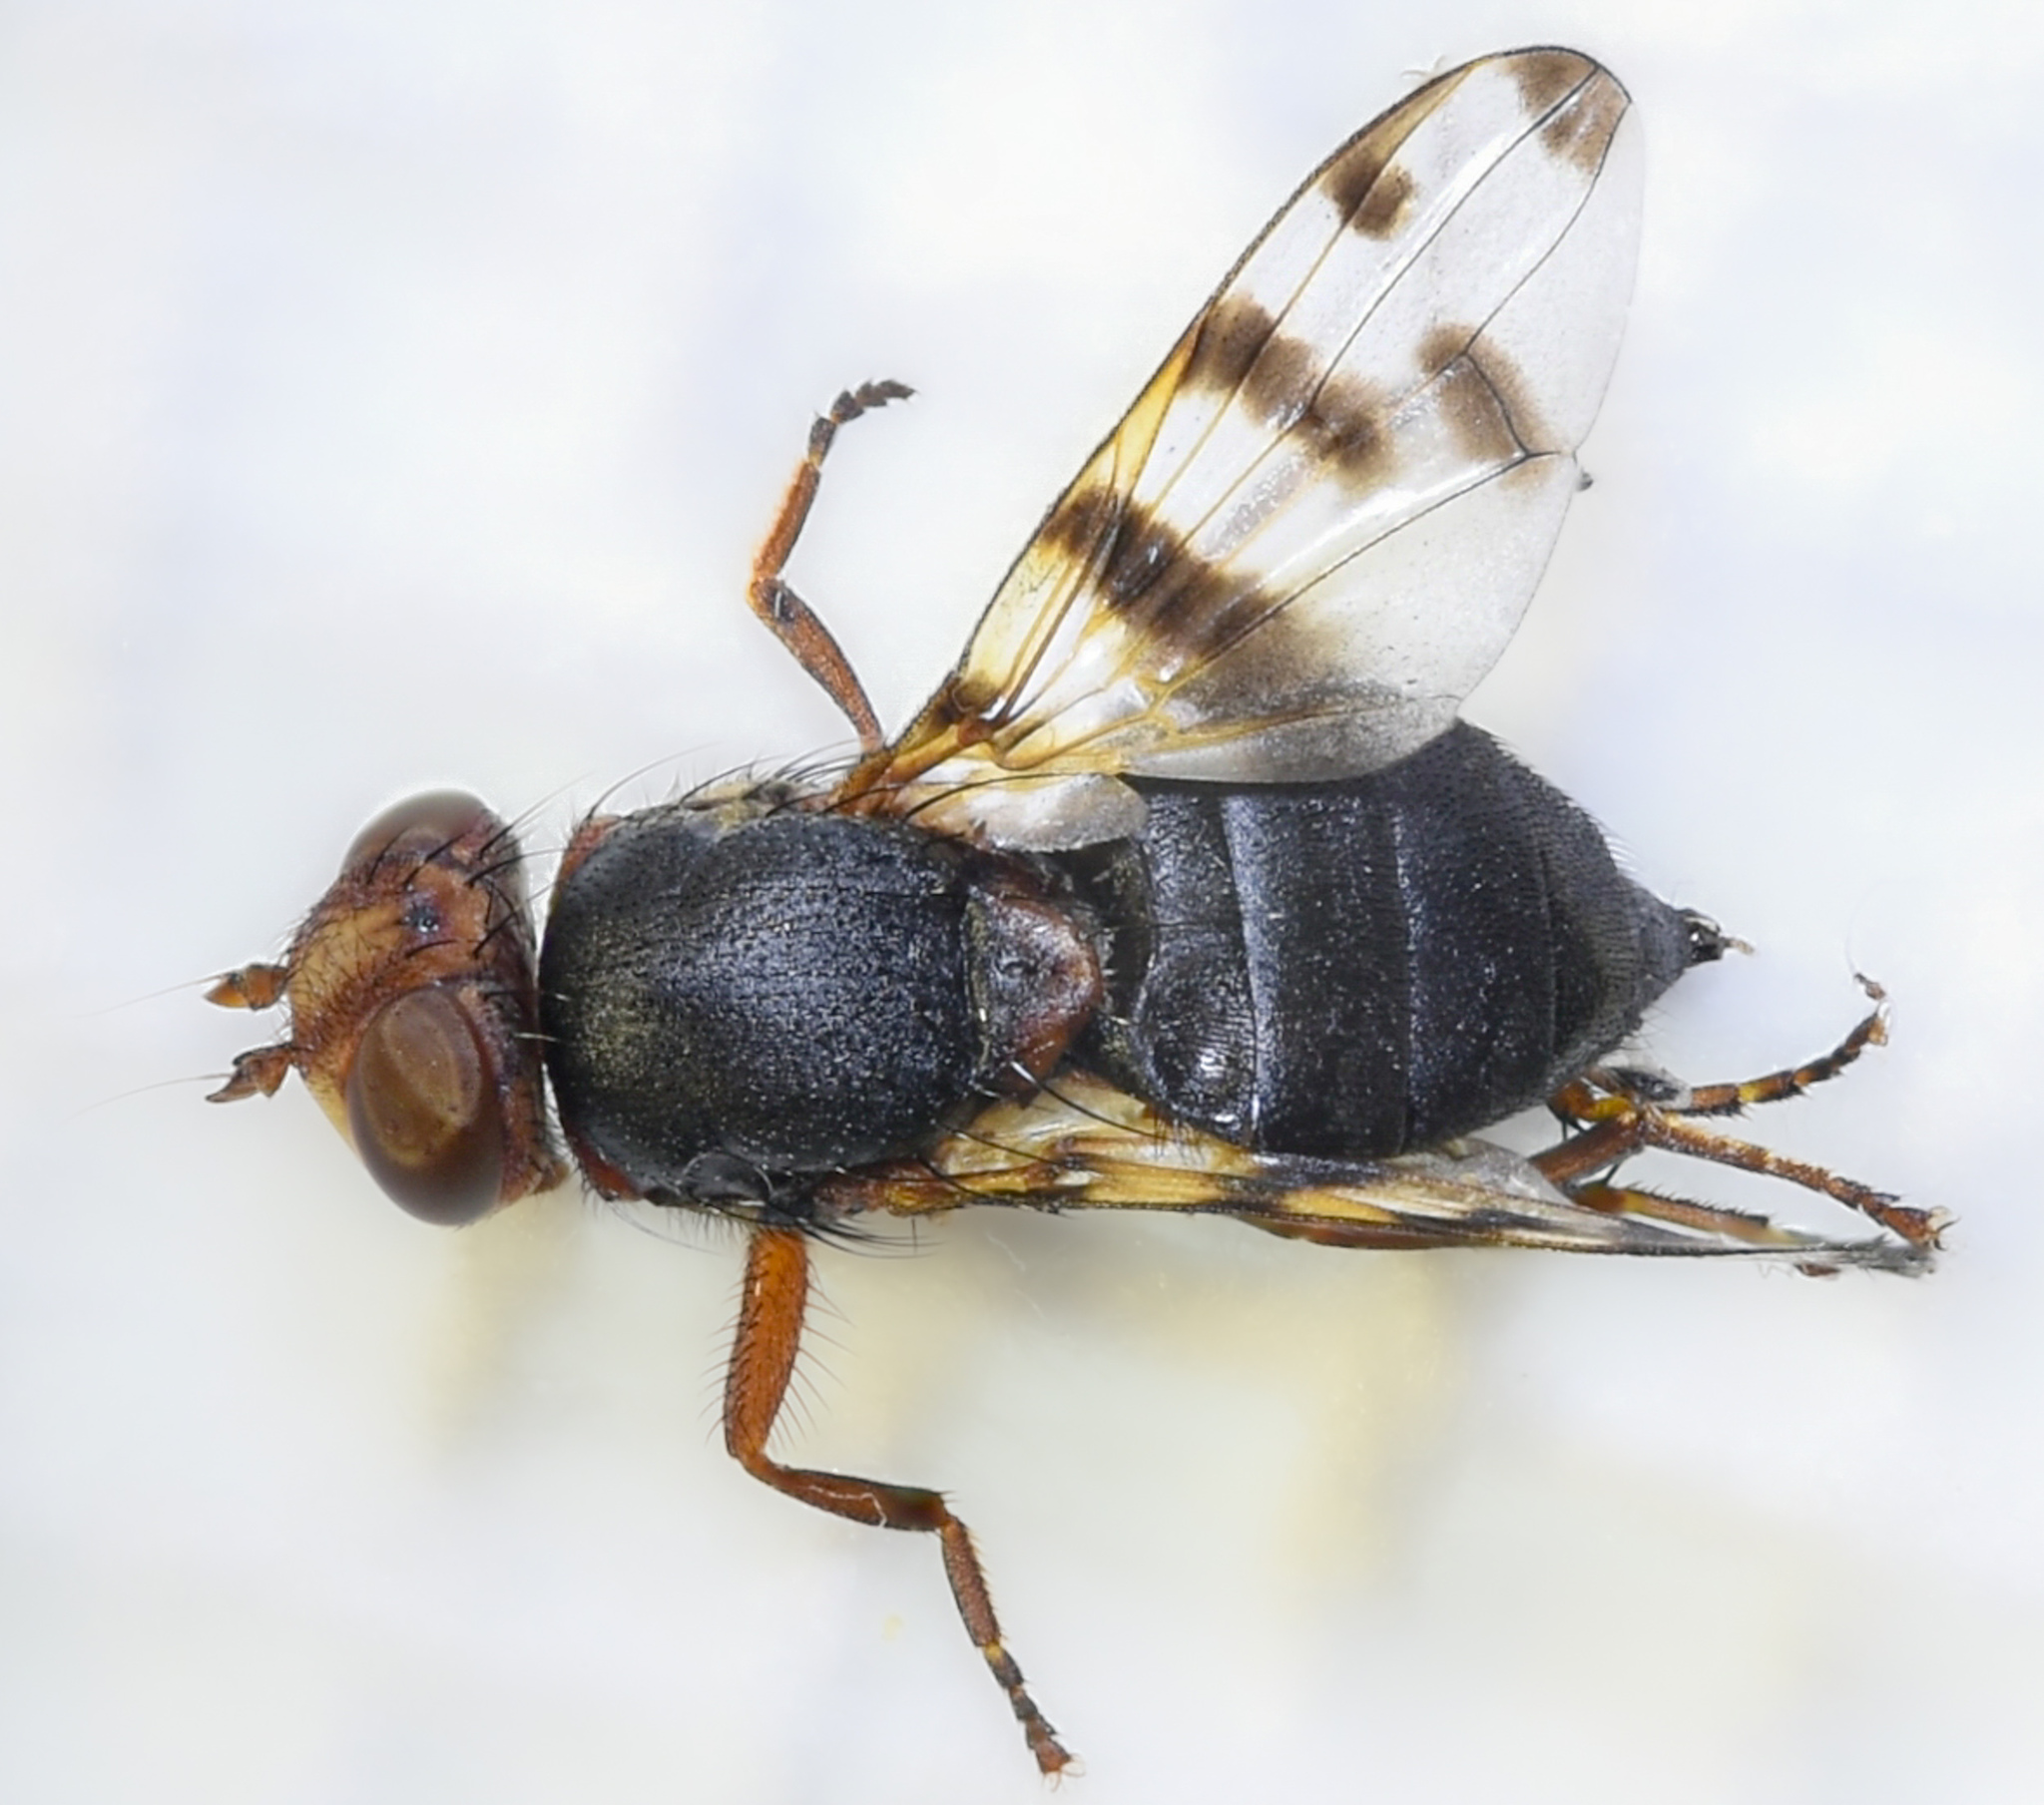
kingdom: Animalia
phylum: Arthropoda
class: Insecta
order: Diptera
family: Ulidiidae
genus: Ceroxys
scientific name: Ceroxys latiusculus
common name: Picture-winged fly
